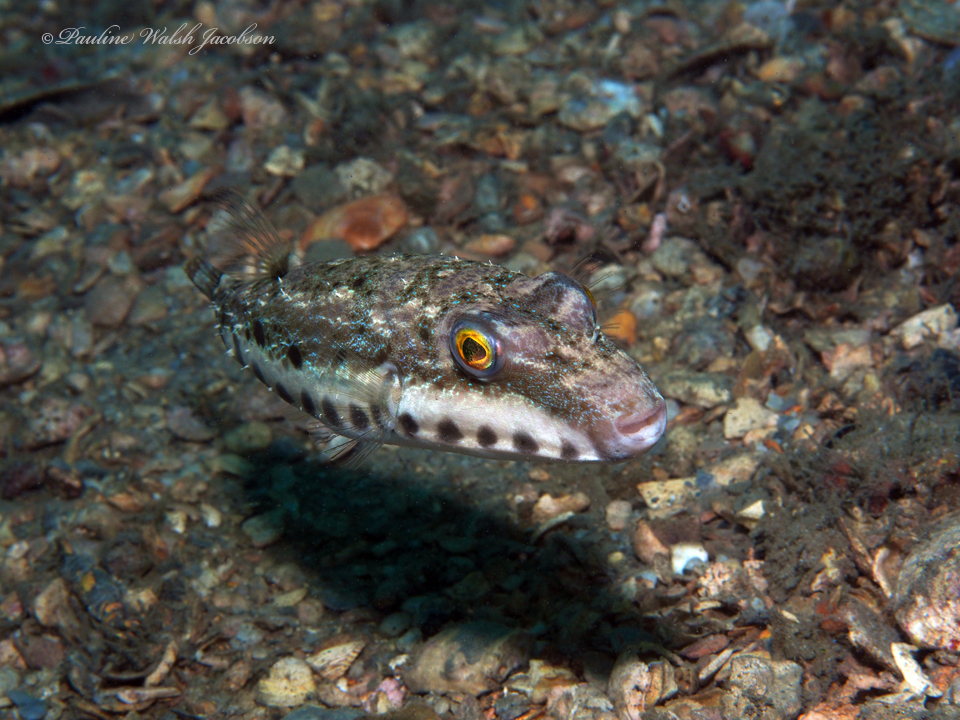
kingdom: Animalia
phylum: Chordata
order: Tetraodontiformes
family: Tetraodontidae
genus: Sphoeroides
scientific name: Sphoeroides spengleri
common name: Bandtail puffer
